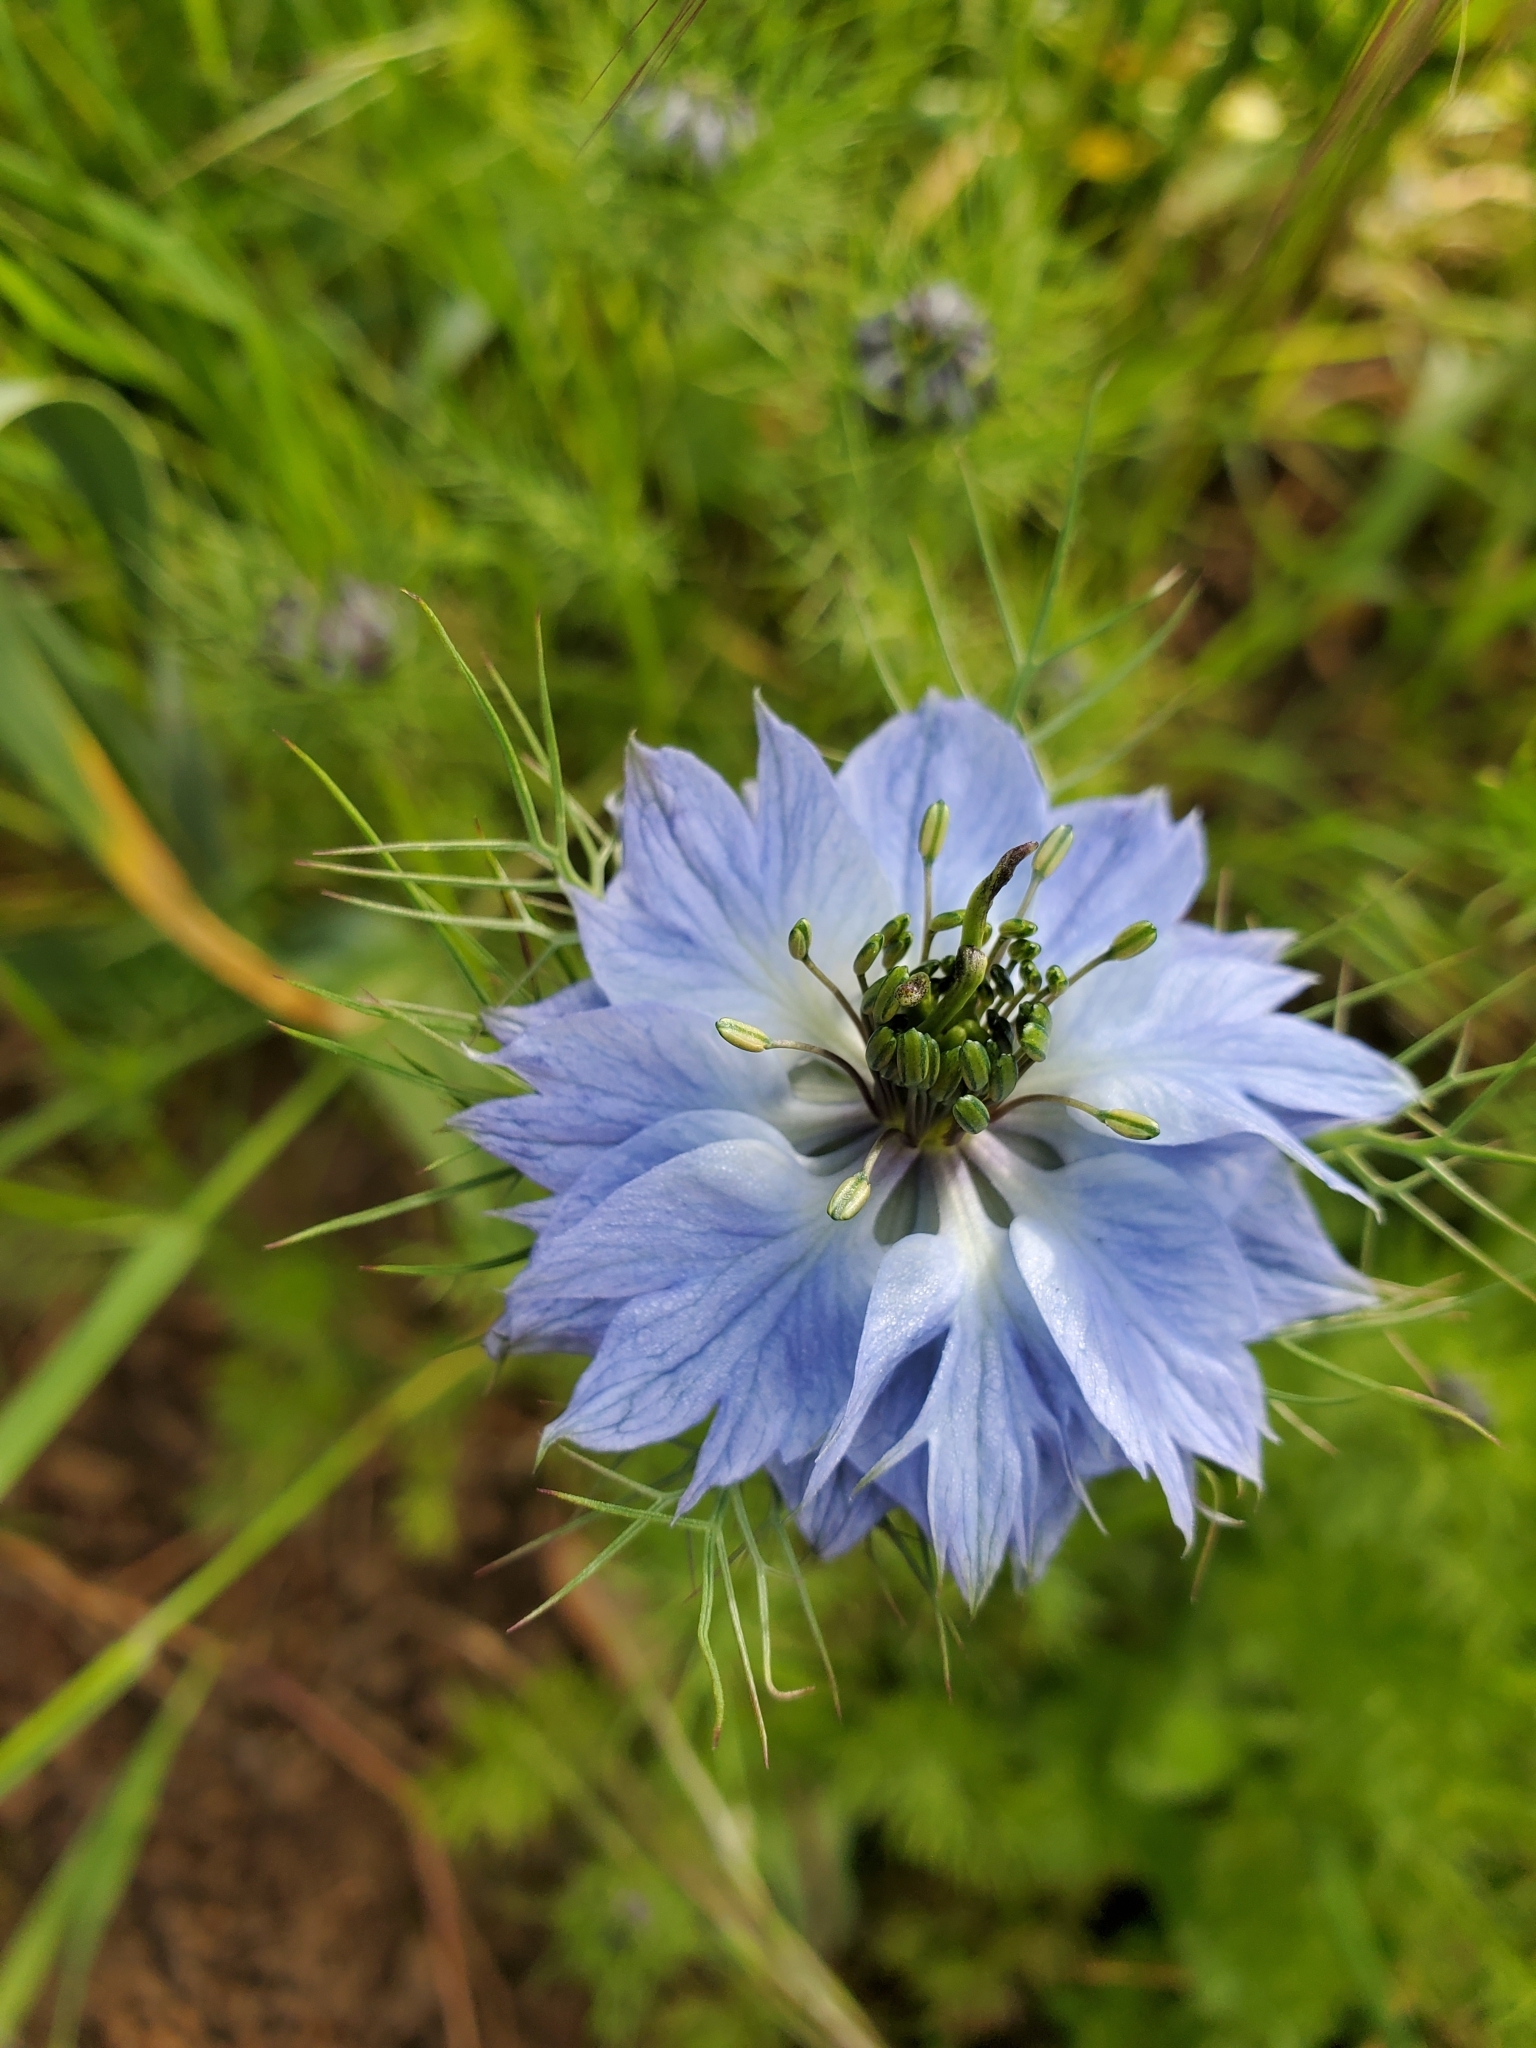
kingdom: Plantae
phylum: Tracheophyta
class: Magnoliopsida
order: Ranunculales
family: Ranunculaceae
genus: Nigella
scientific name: Nigella damascena
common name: Love-in-a-mist
